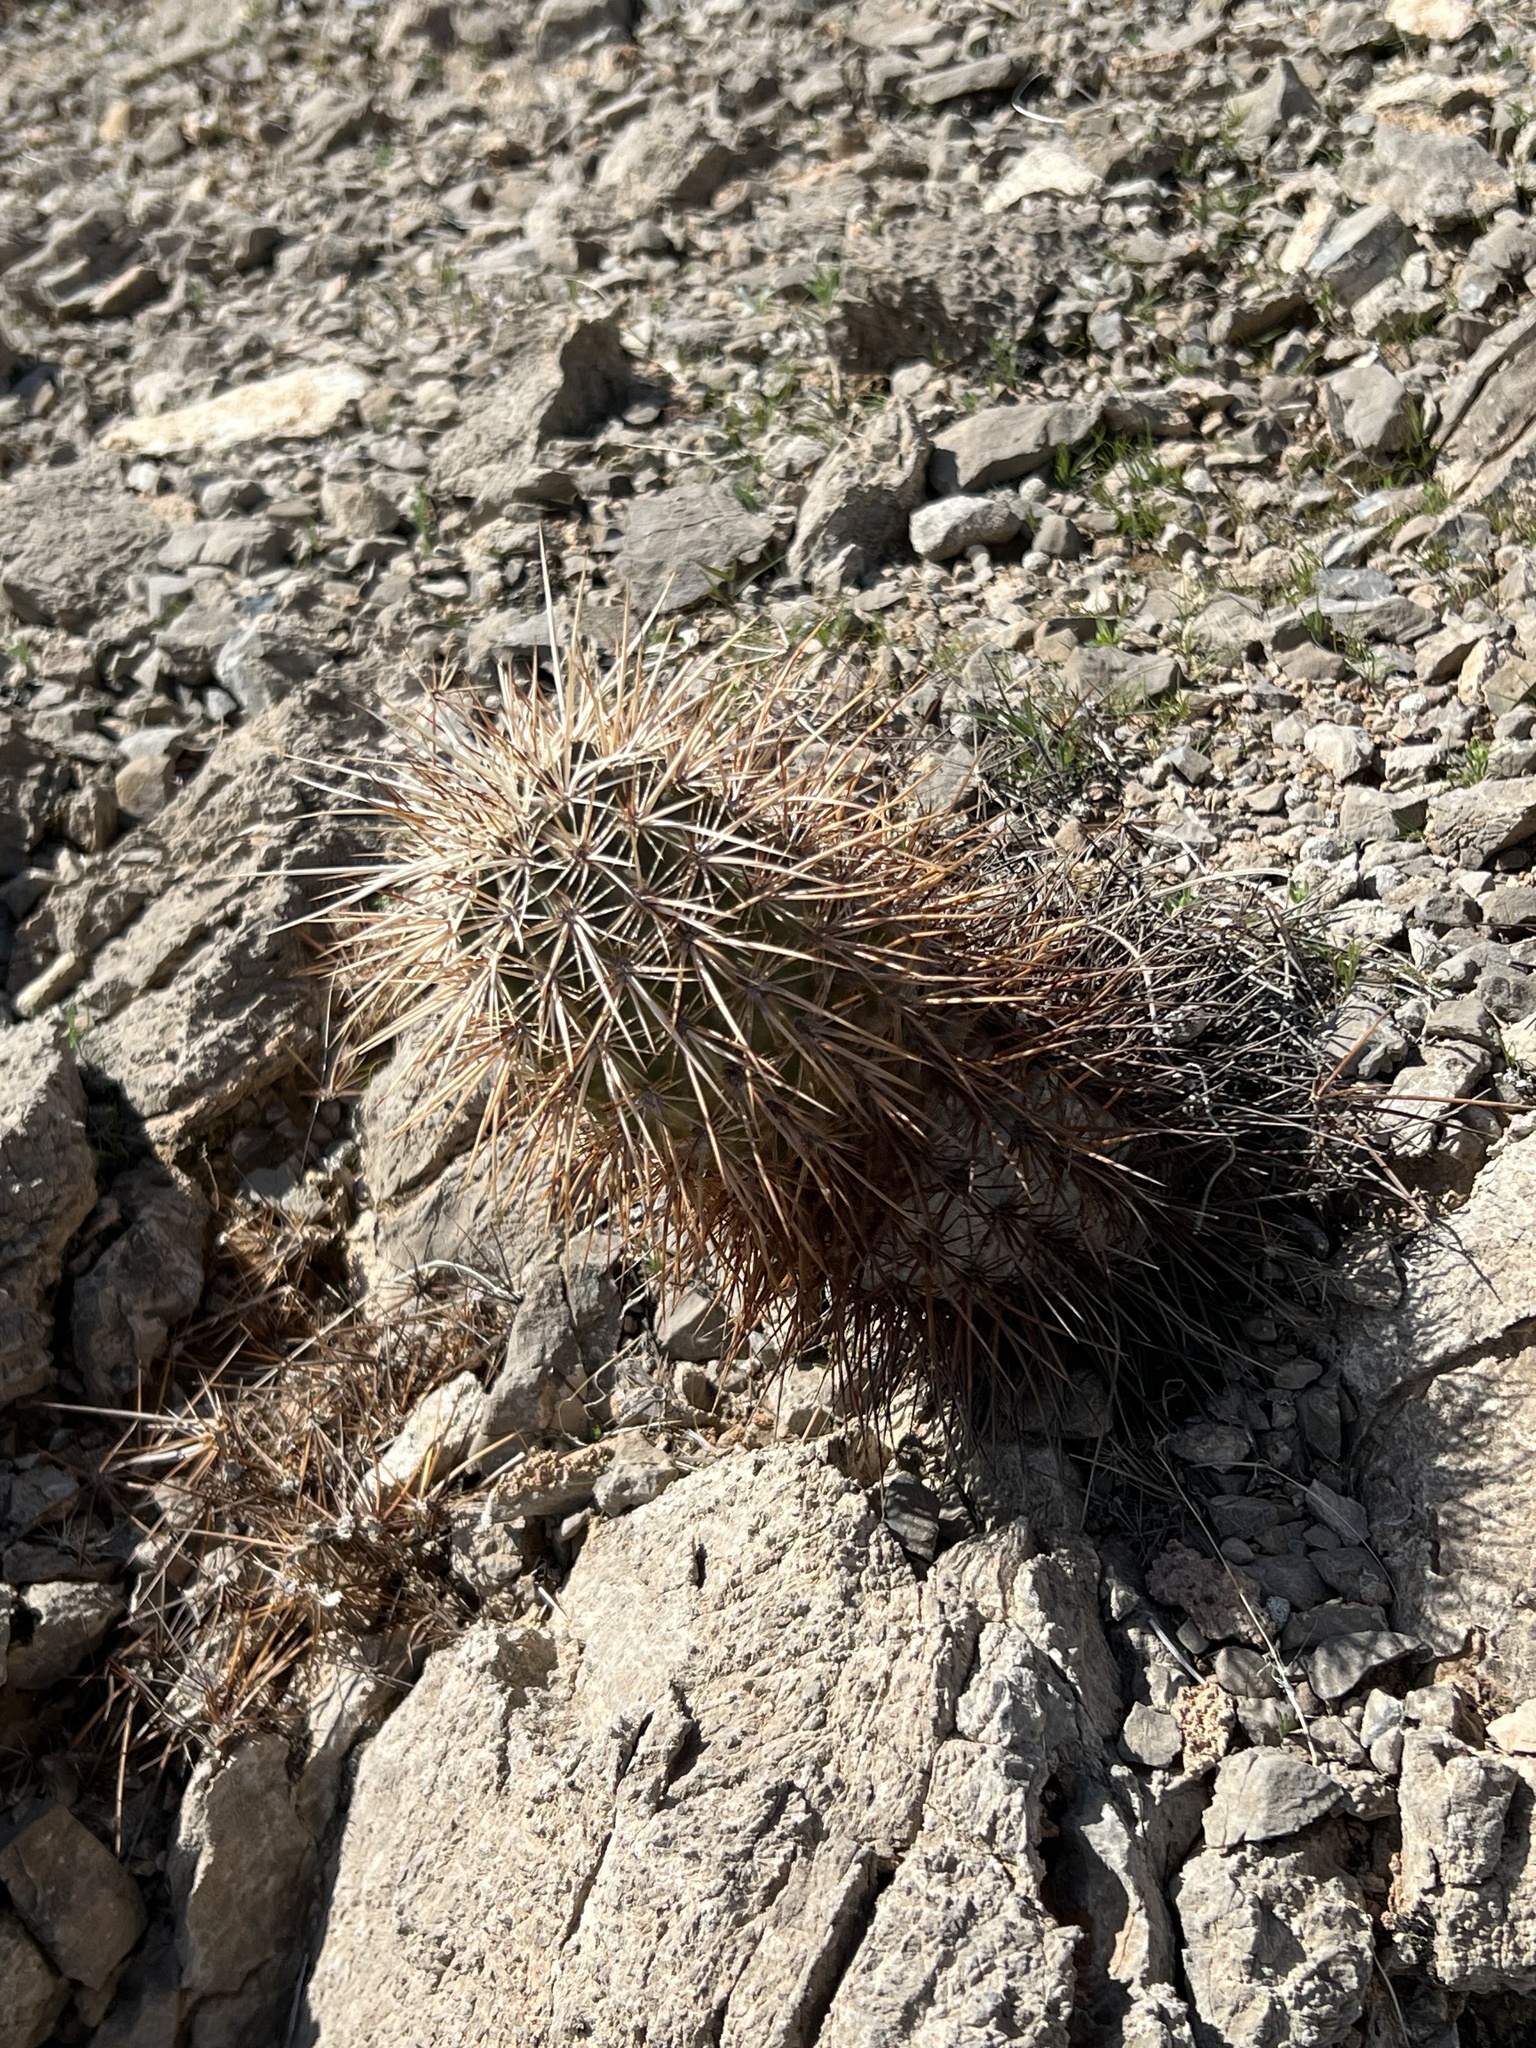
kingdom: Plantae
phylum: Tracheophyta
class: Magnoliopsida
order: Caryophyllales
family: Cactaceae
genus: Echinocereus
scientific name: Echinocereus engelmannii
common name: Engelmann's hedgehog cactus
